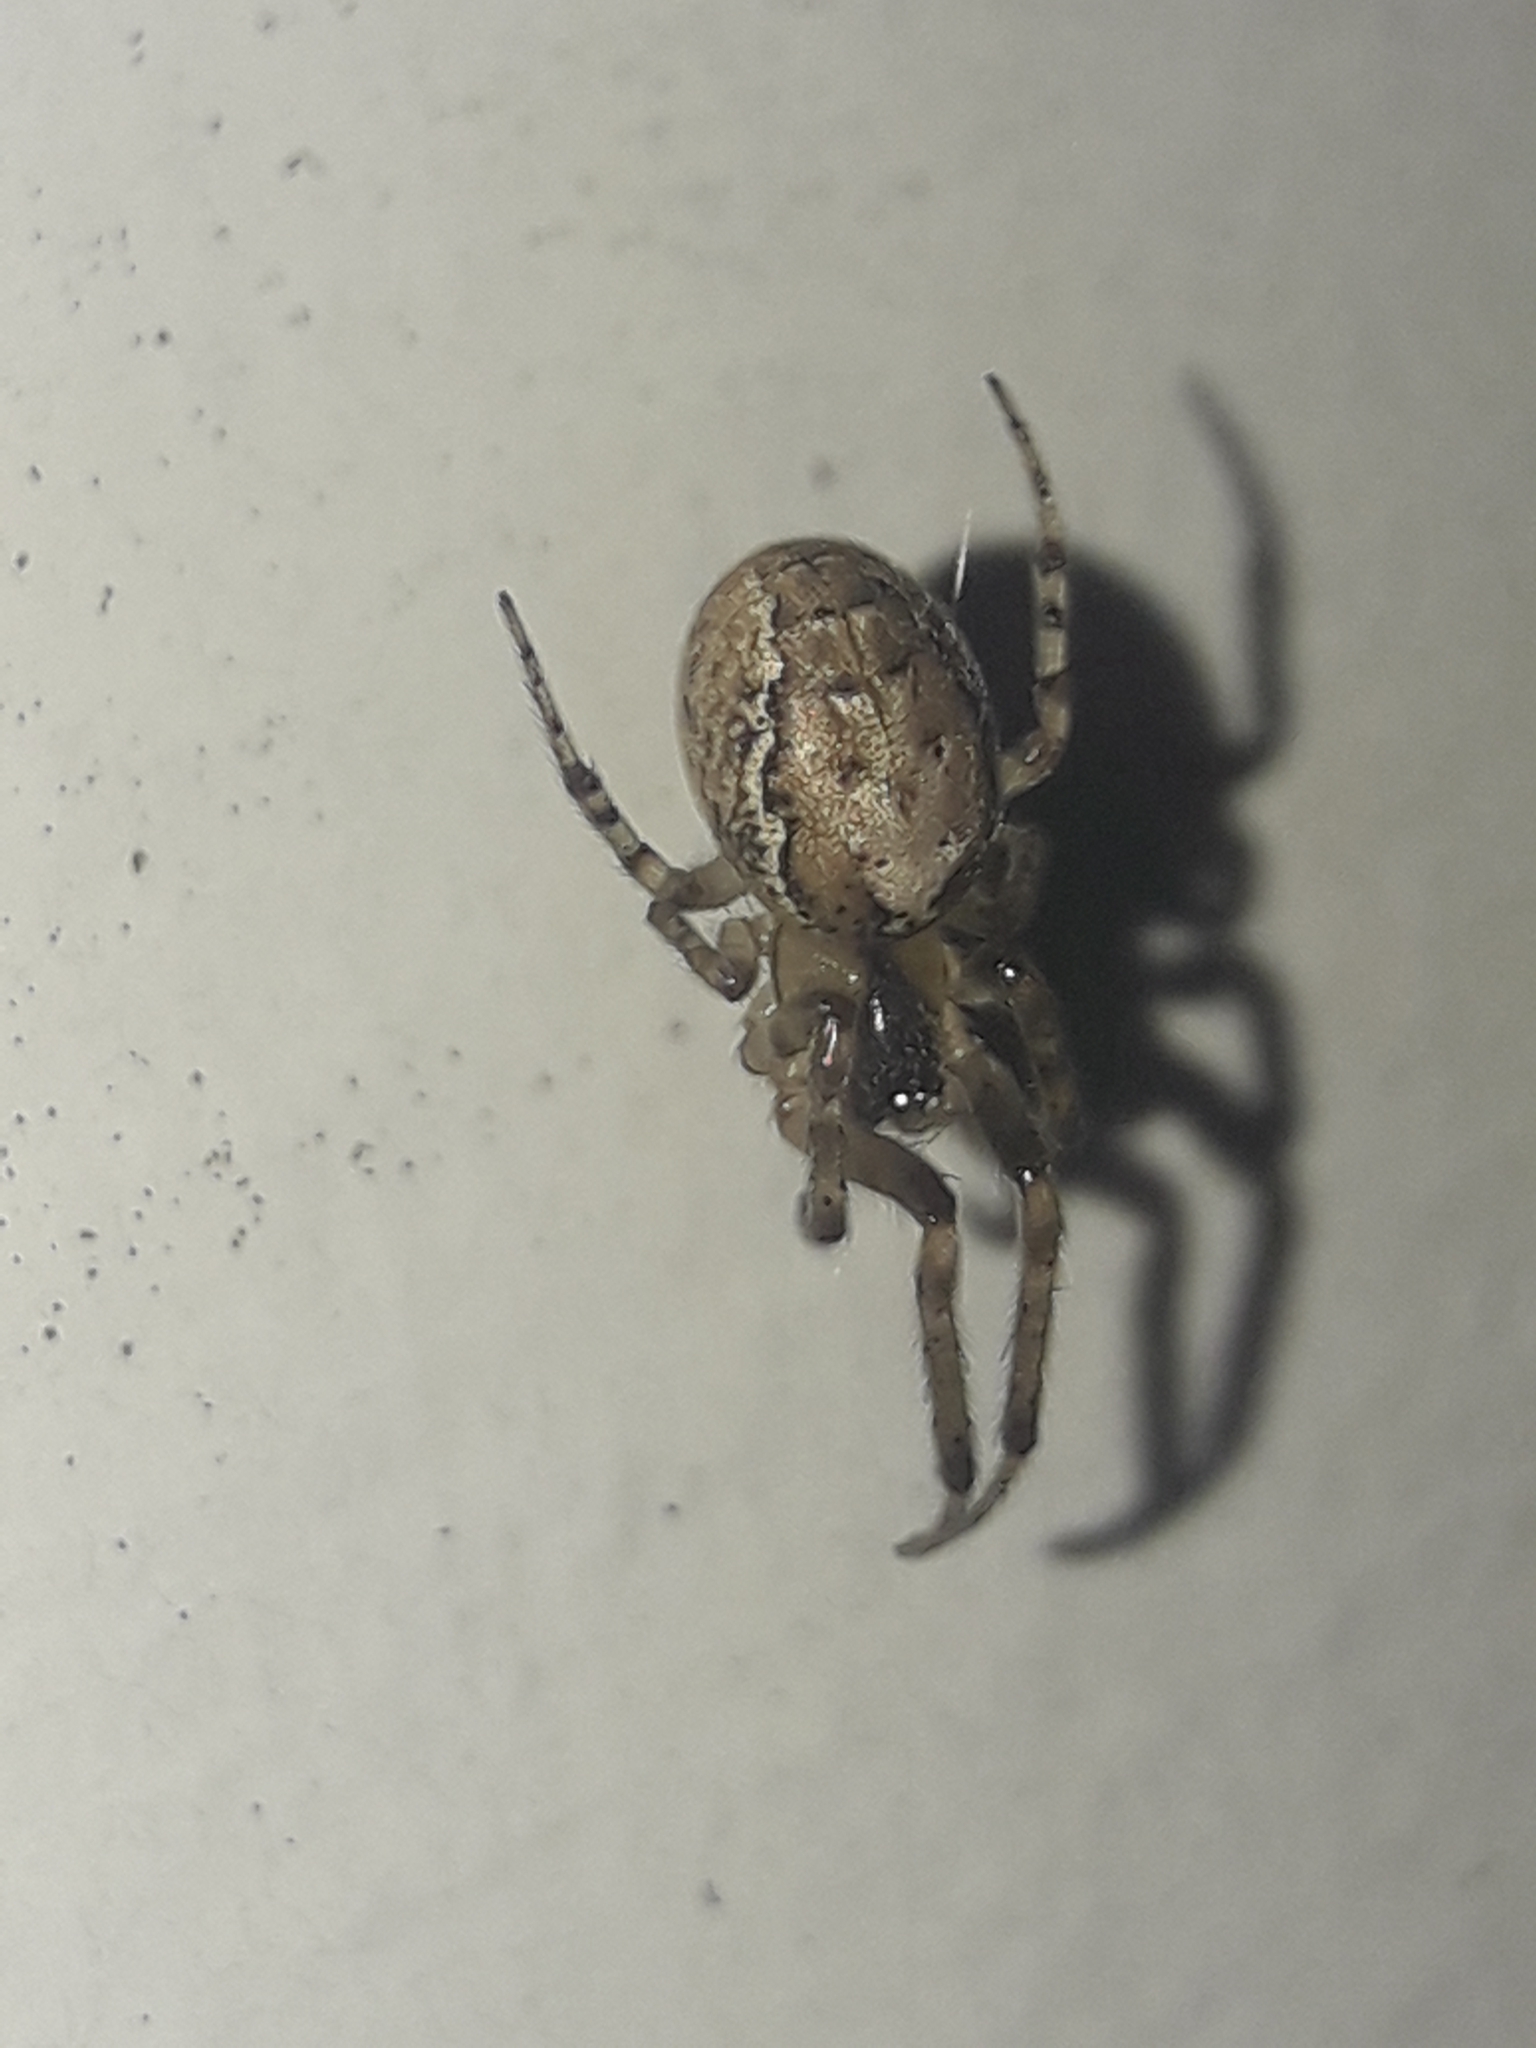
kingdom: Animalia
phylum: Arthropoda
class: Arachnida
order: Araneae
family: Araneidae
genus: Zygiella
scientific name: Zygiella x-notata
